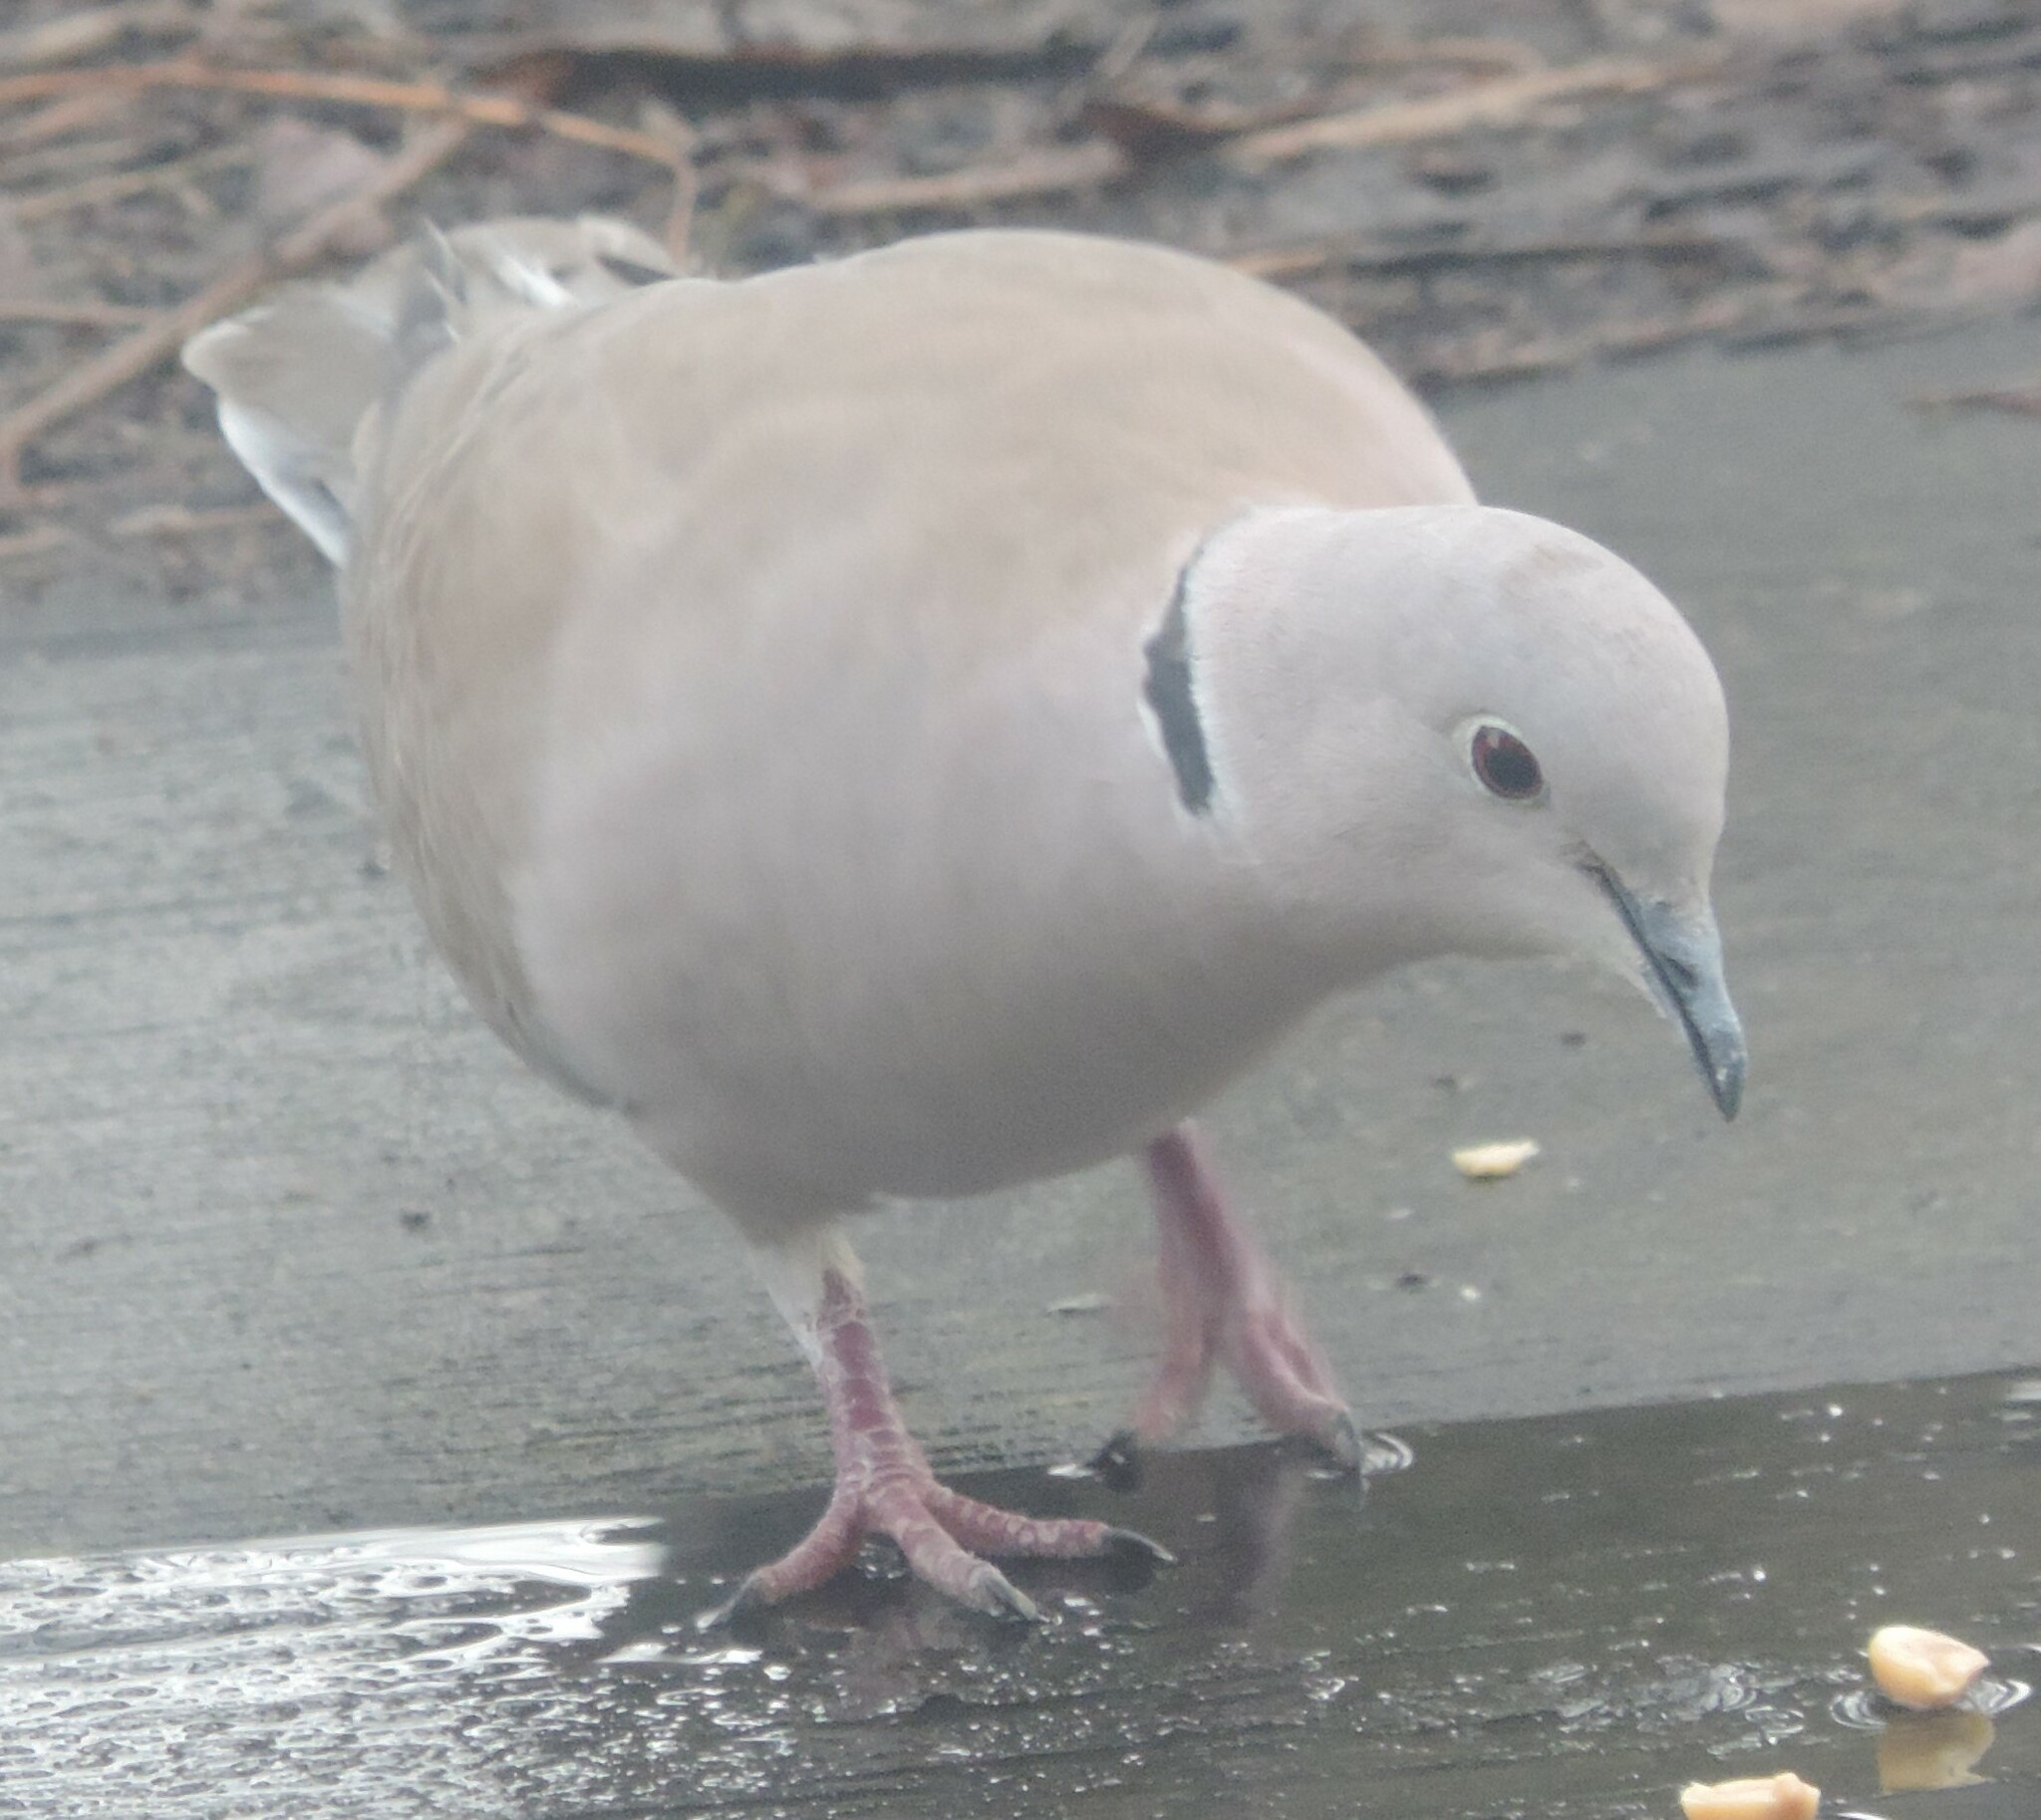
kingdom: Animalia
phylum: Chordata
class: Aves
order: Columbiformes
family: Columbidae
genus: Streptopelia
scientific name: Streptopelia decaocto
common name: Eurasian collared dove
